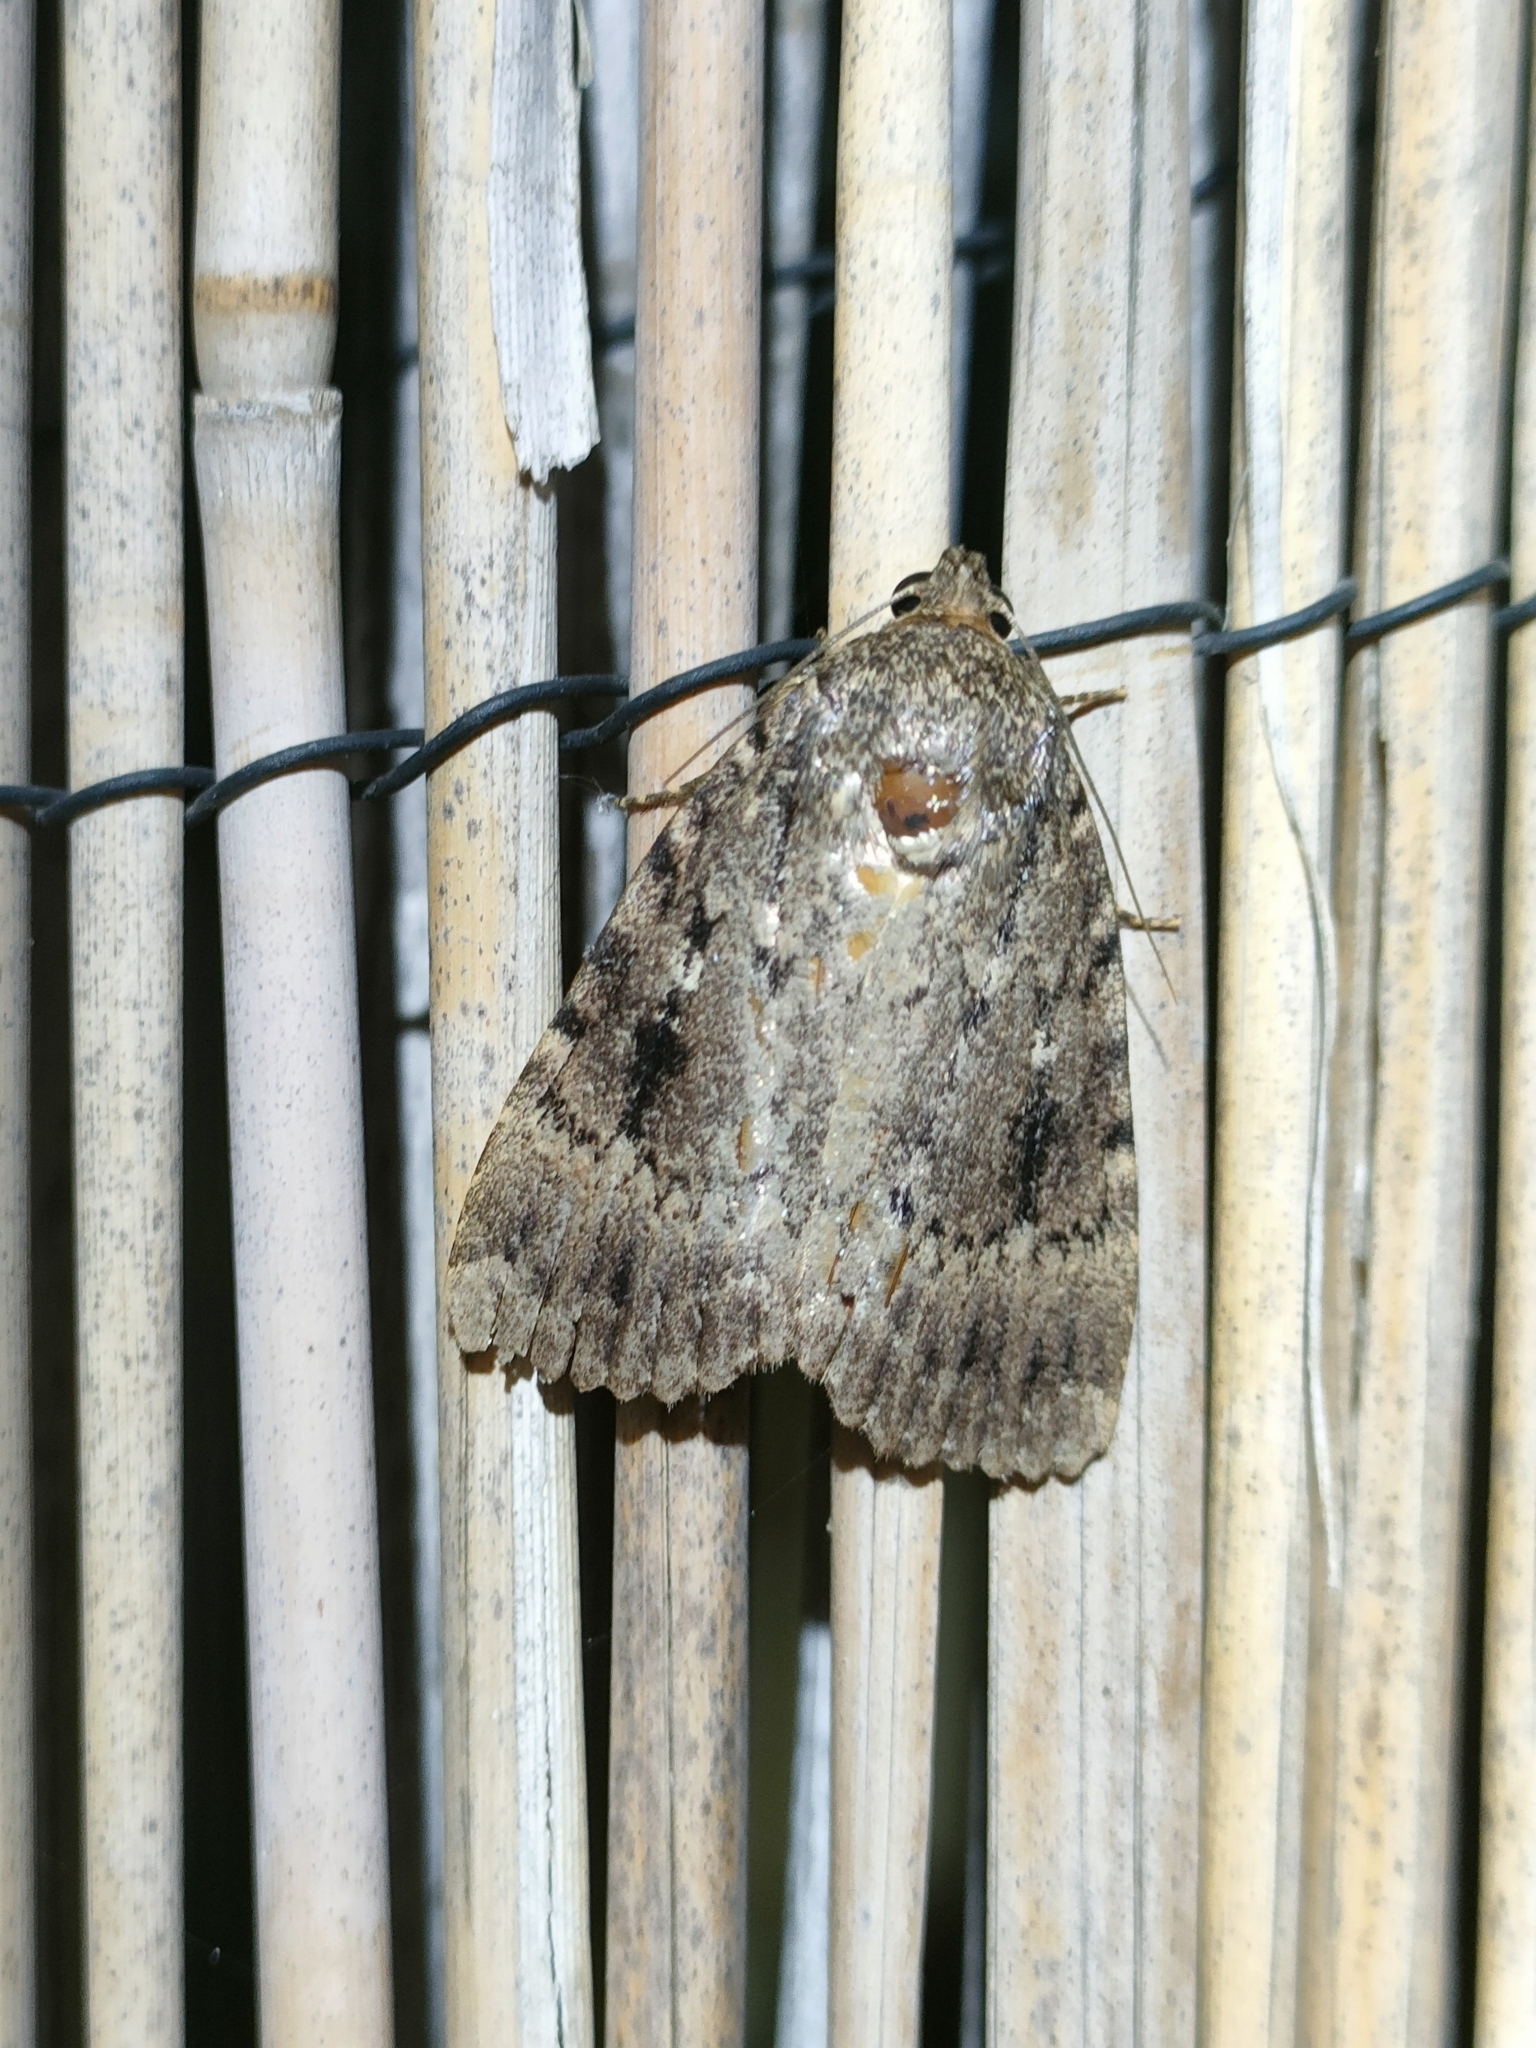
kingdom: Animalia
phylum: Arthropoda
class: Insecta
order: Lepidoptera
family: Noctuidae
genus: Amphipyra
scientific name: Amphipyra pyramidea
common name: Copper underwing
